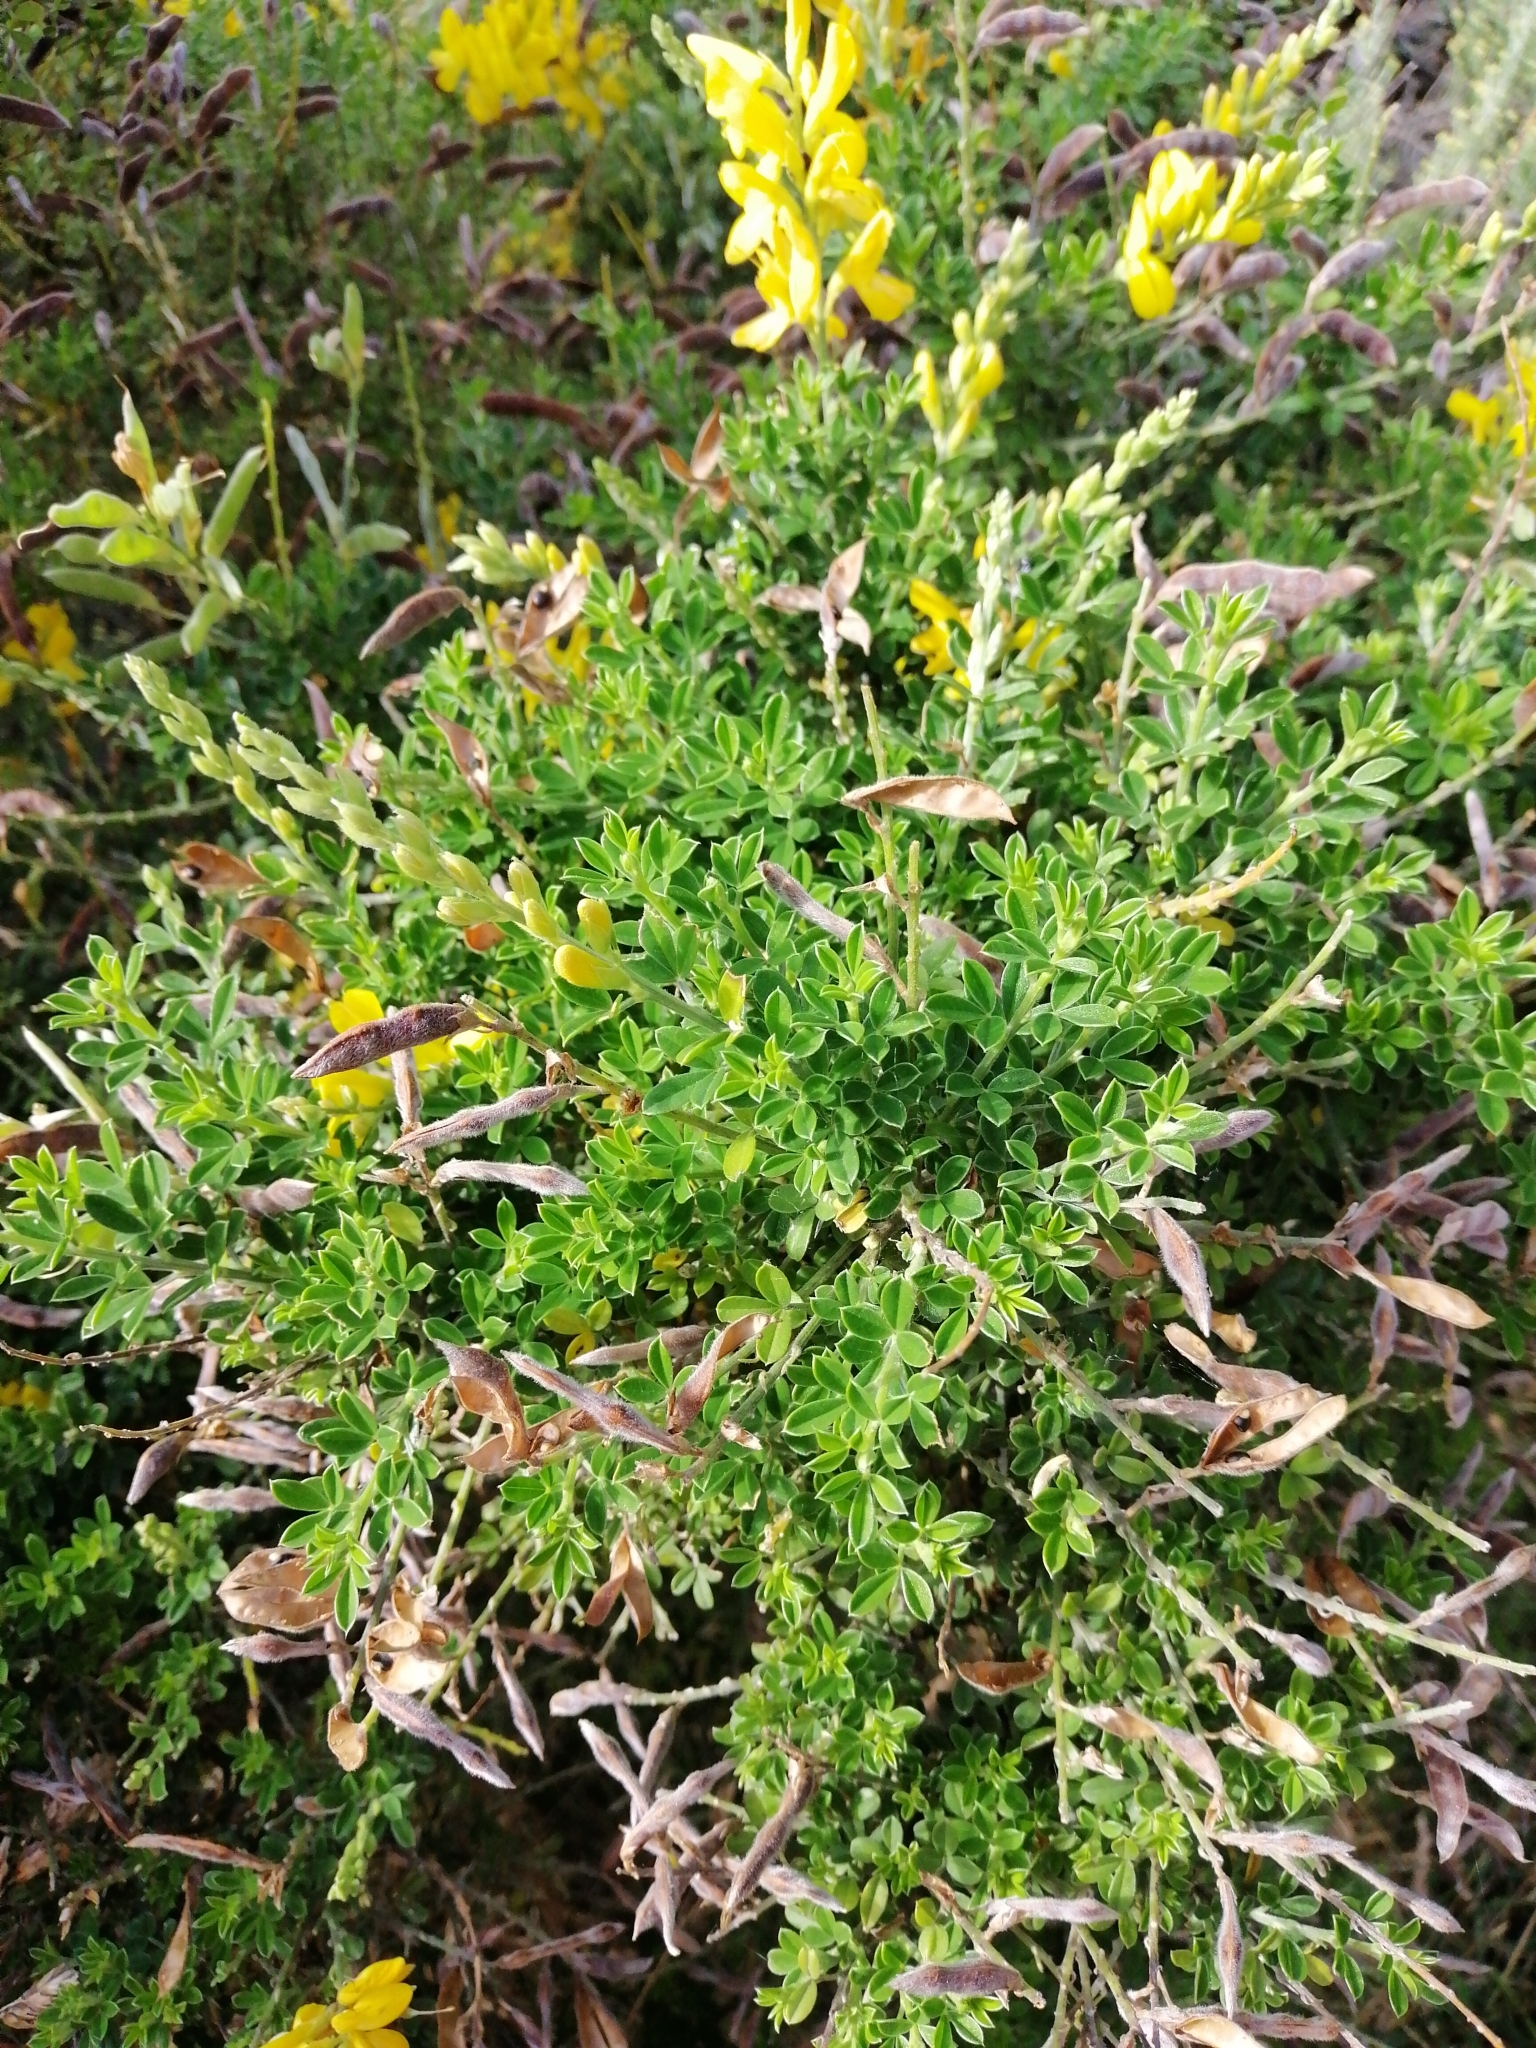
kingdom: Plantae
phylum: Tracheophyta
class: Magnoliopsida
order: Fabales
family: Fabaceae
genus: Cytisus
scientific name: Cytisus scoparius
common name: Scotch broom
